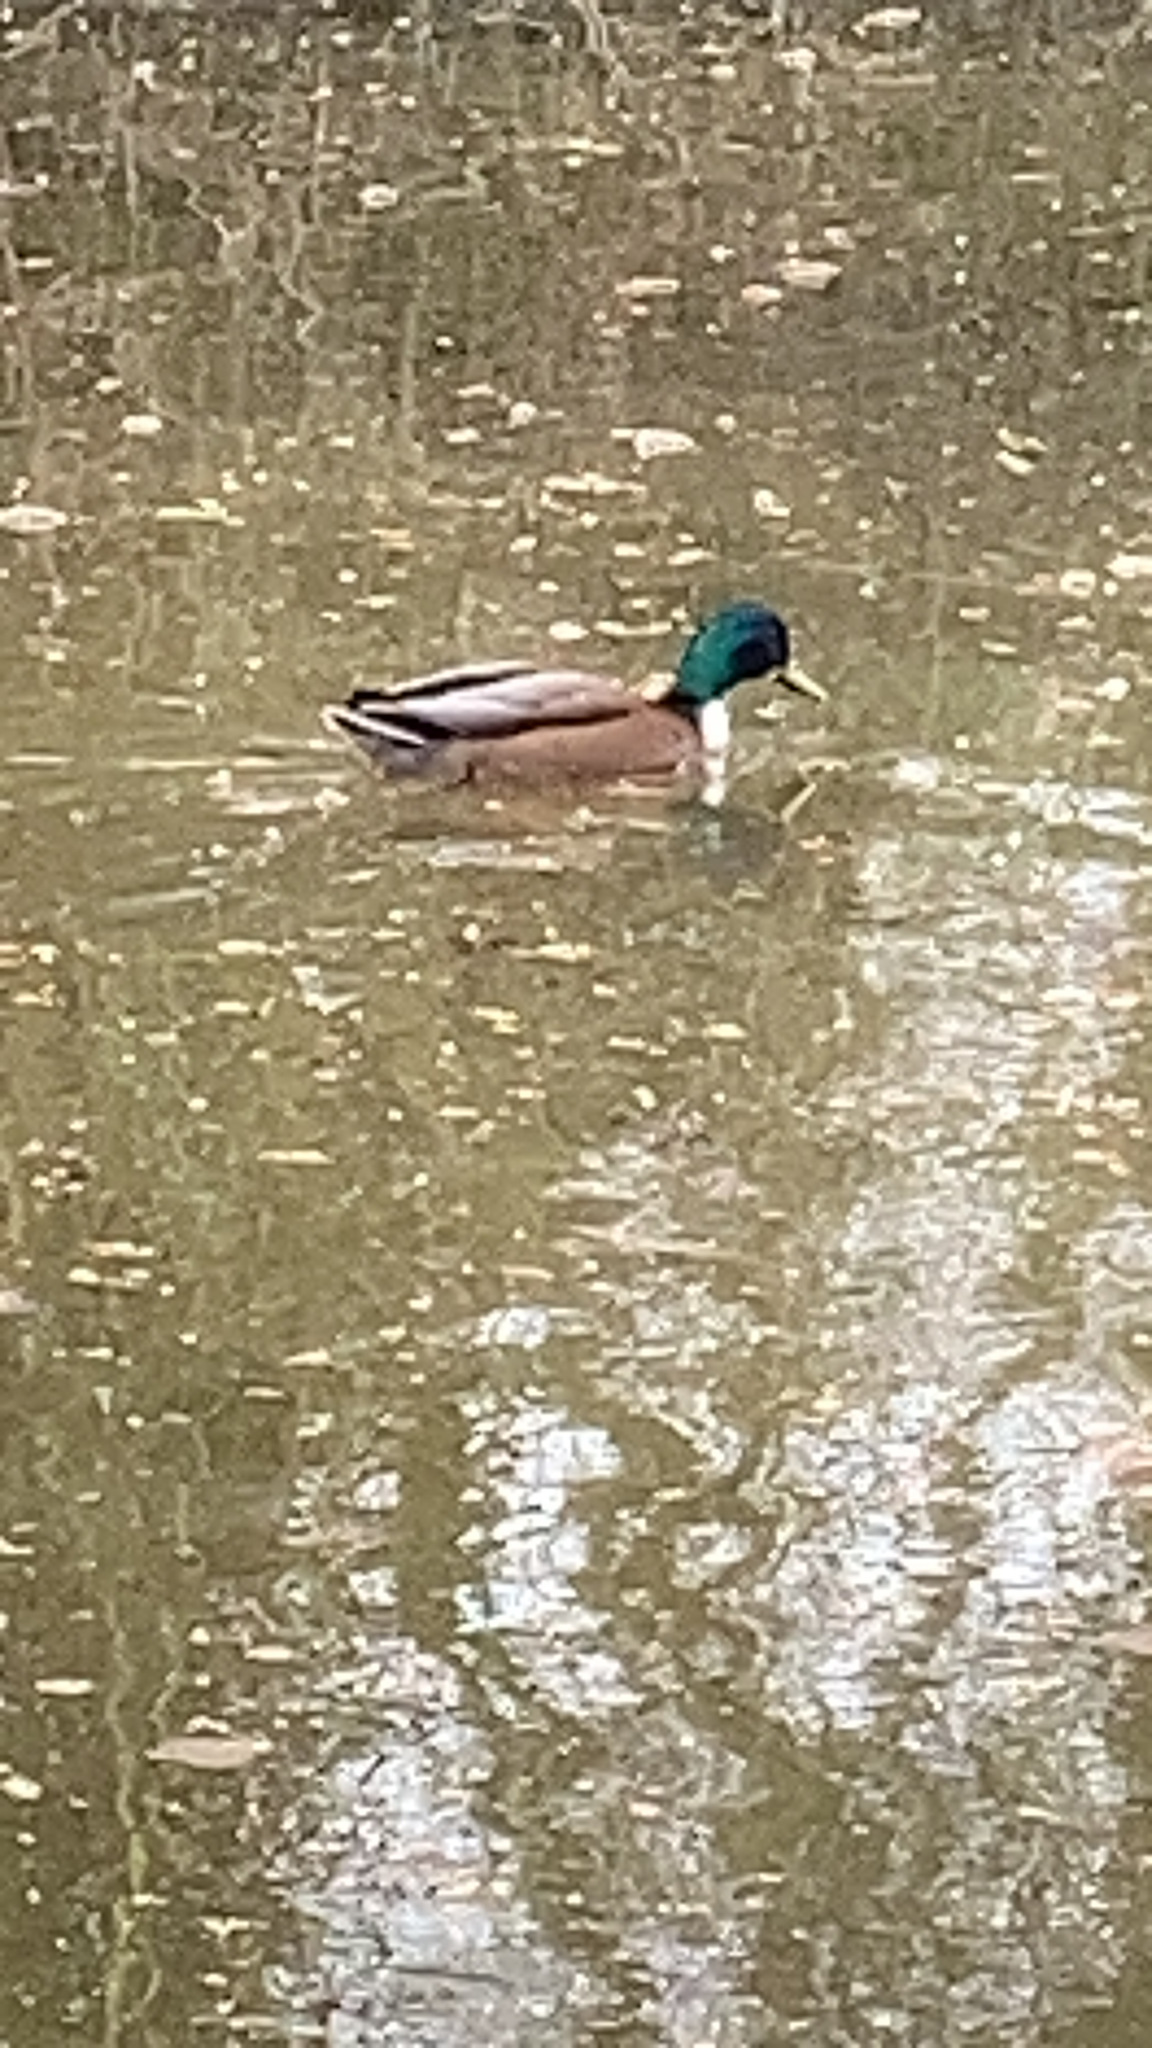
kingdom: Animalia
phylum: Chordata
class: Aves
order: Anseriformes
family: Anatidae
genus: Anas
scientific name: Anas platyrhynchos
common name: Mallard
